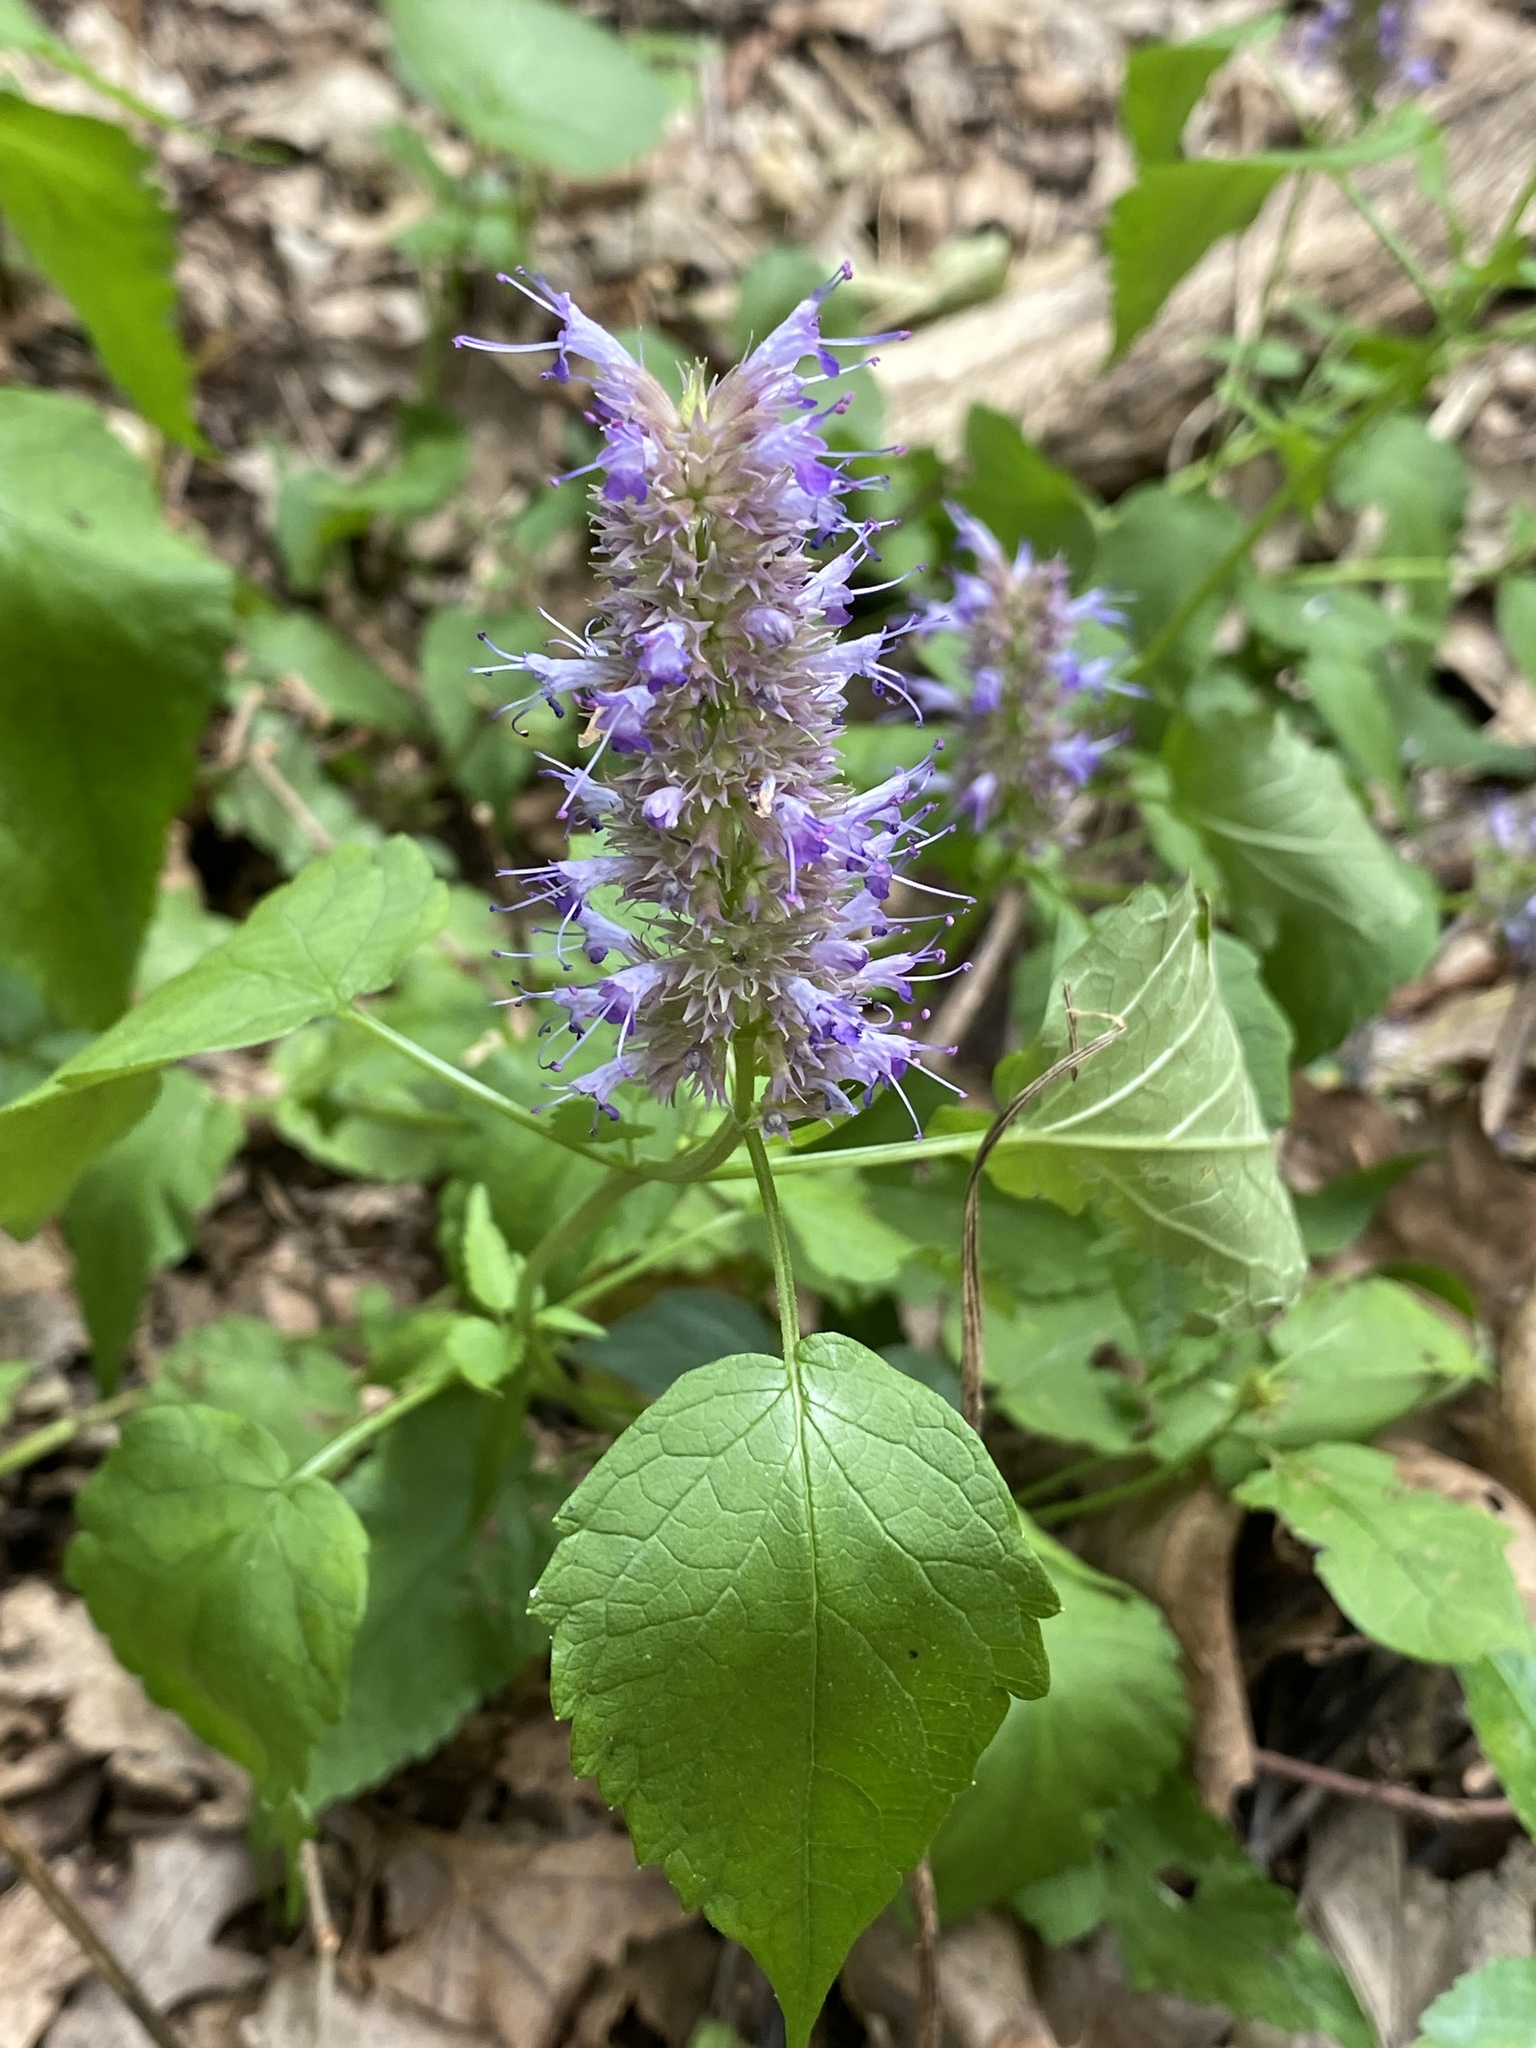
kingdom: Plantae
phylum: Tracheophyta
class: Magnoliopsida
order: Lamiales
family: Lamiaceae
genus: Agastache
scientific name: Agastache foeniculum
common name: Anise hyssop
